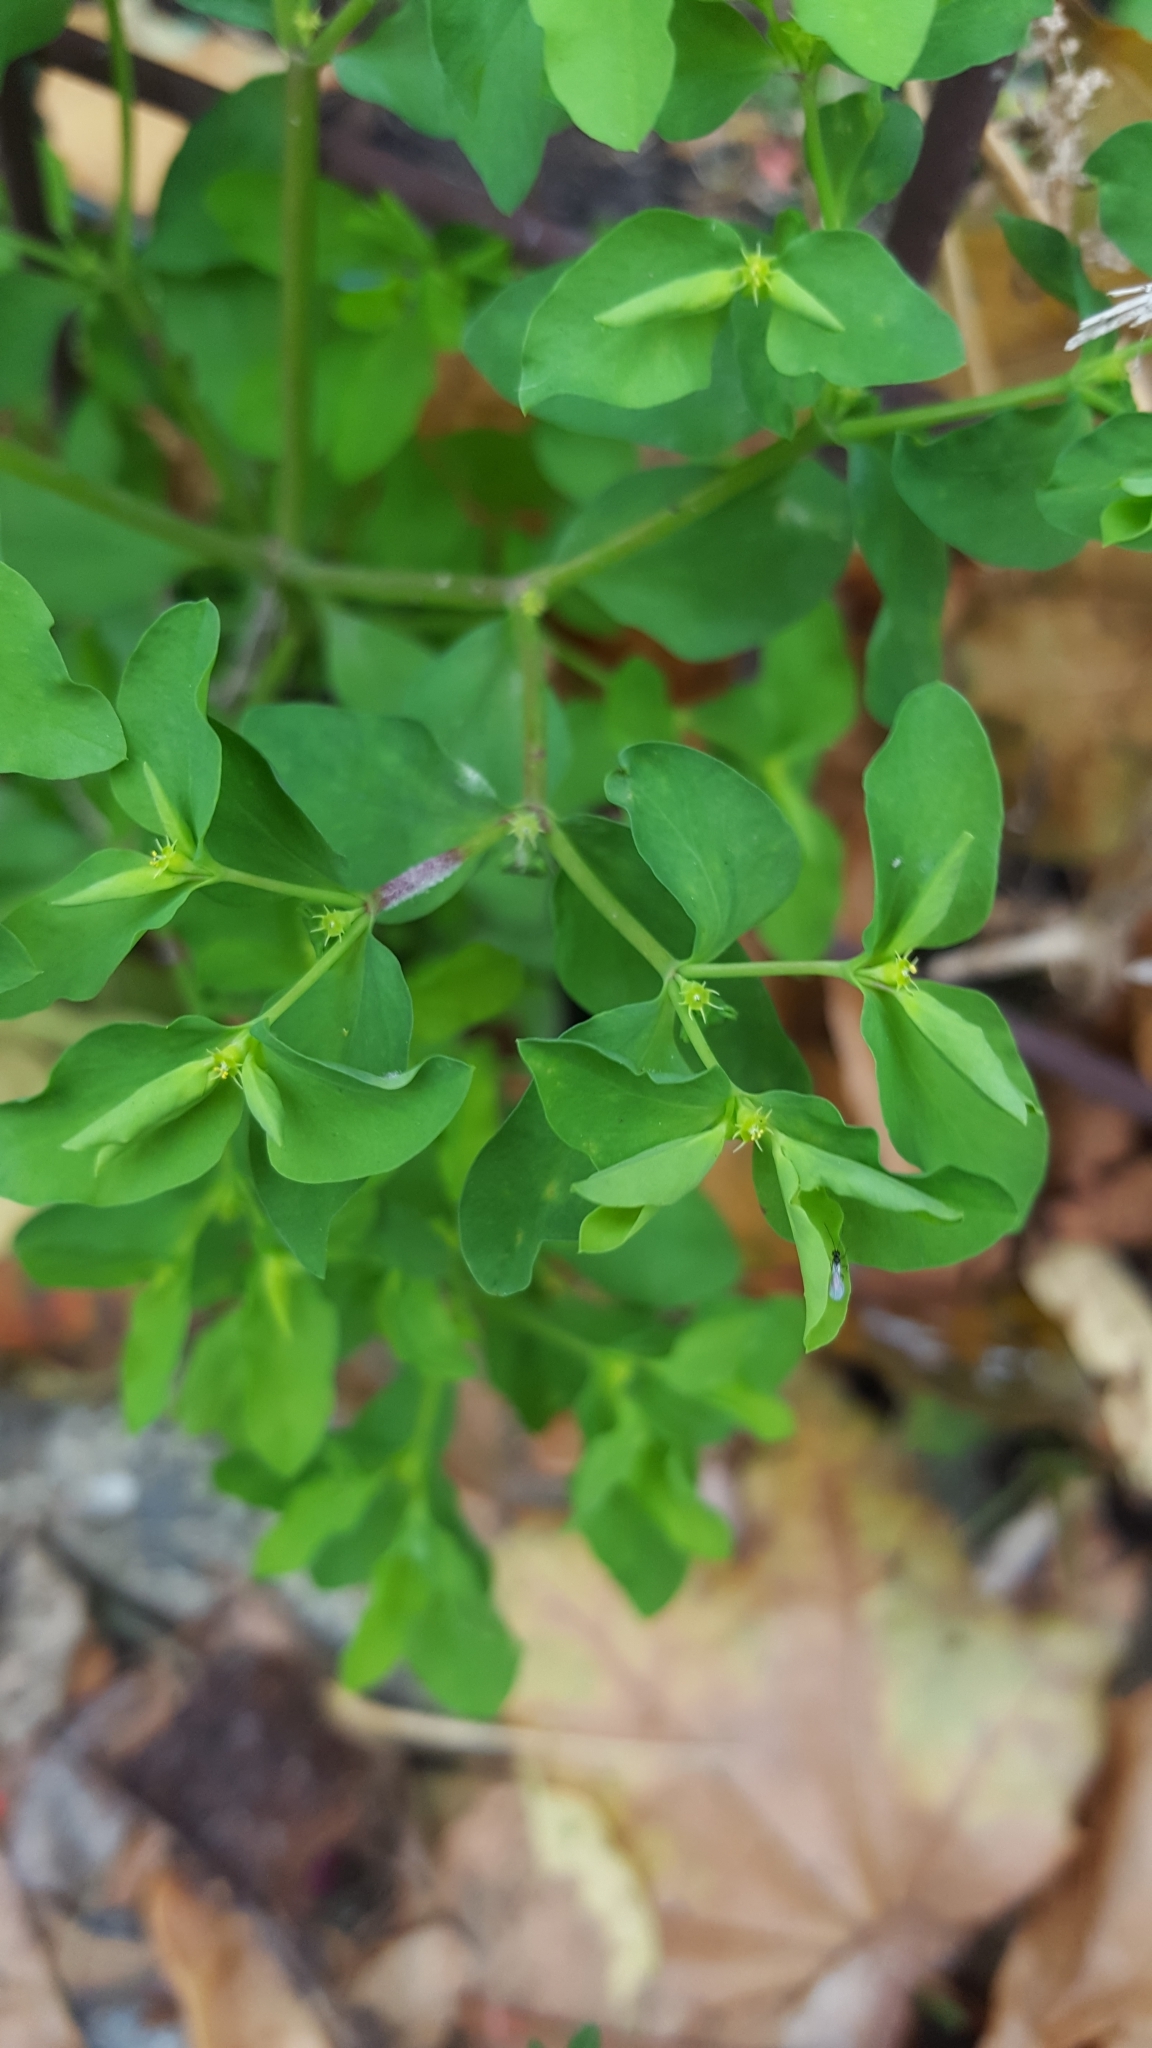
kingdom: Plantae
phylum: Tracheophyta
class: Magnoliopsida
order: Malpighiales
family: Euphorbiaceae
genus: Euphorbia
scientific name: Euphorbia peplus
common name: Petty spurge
